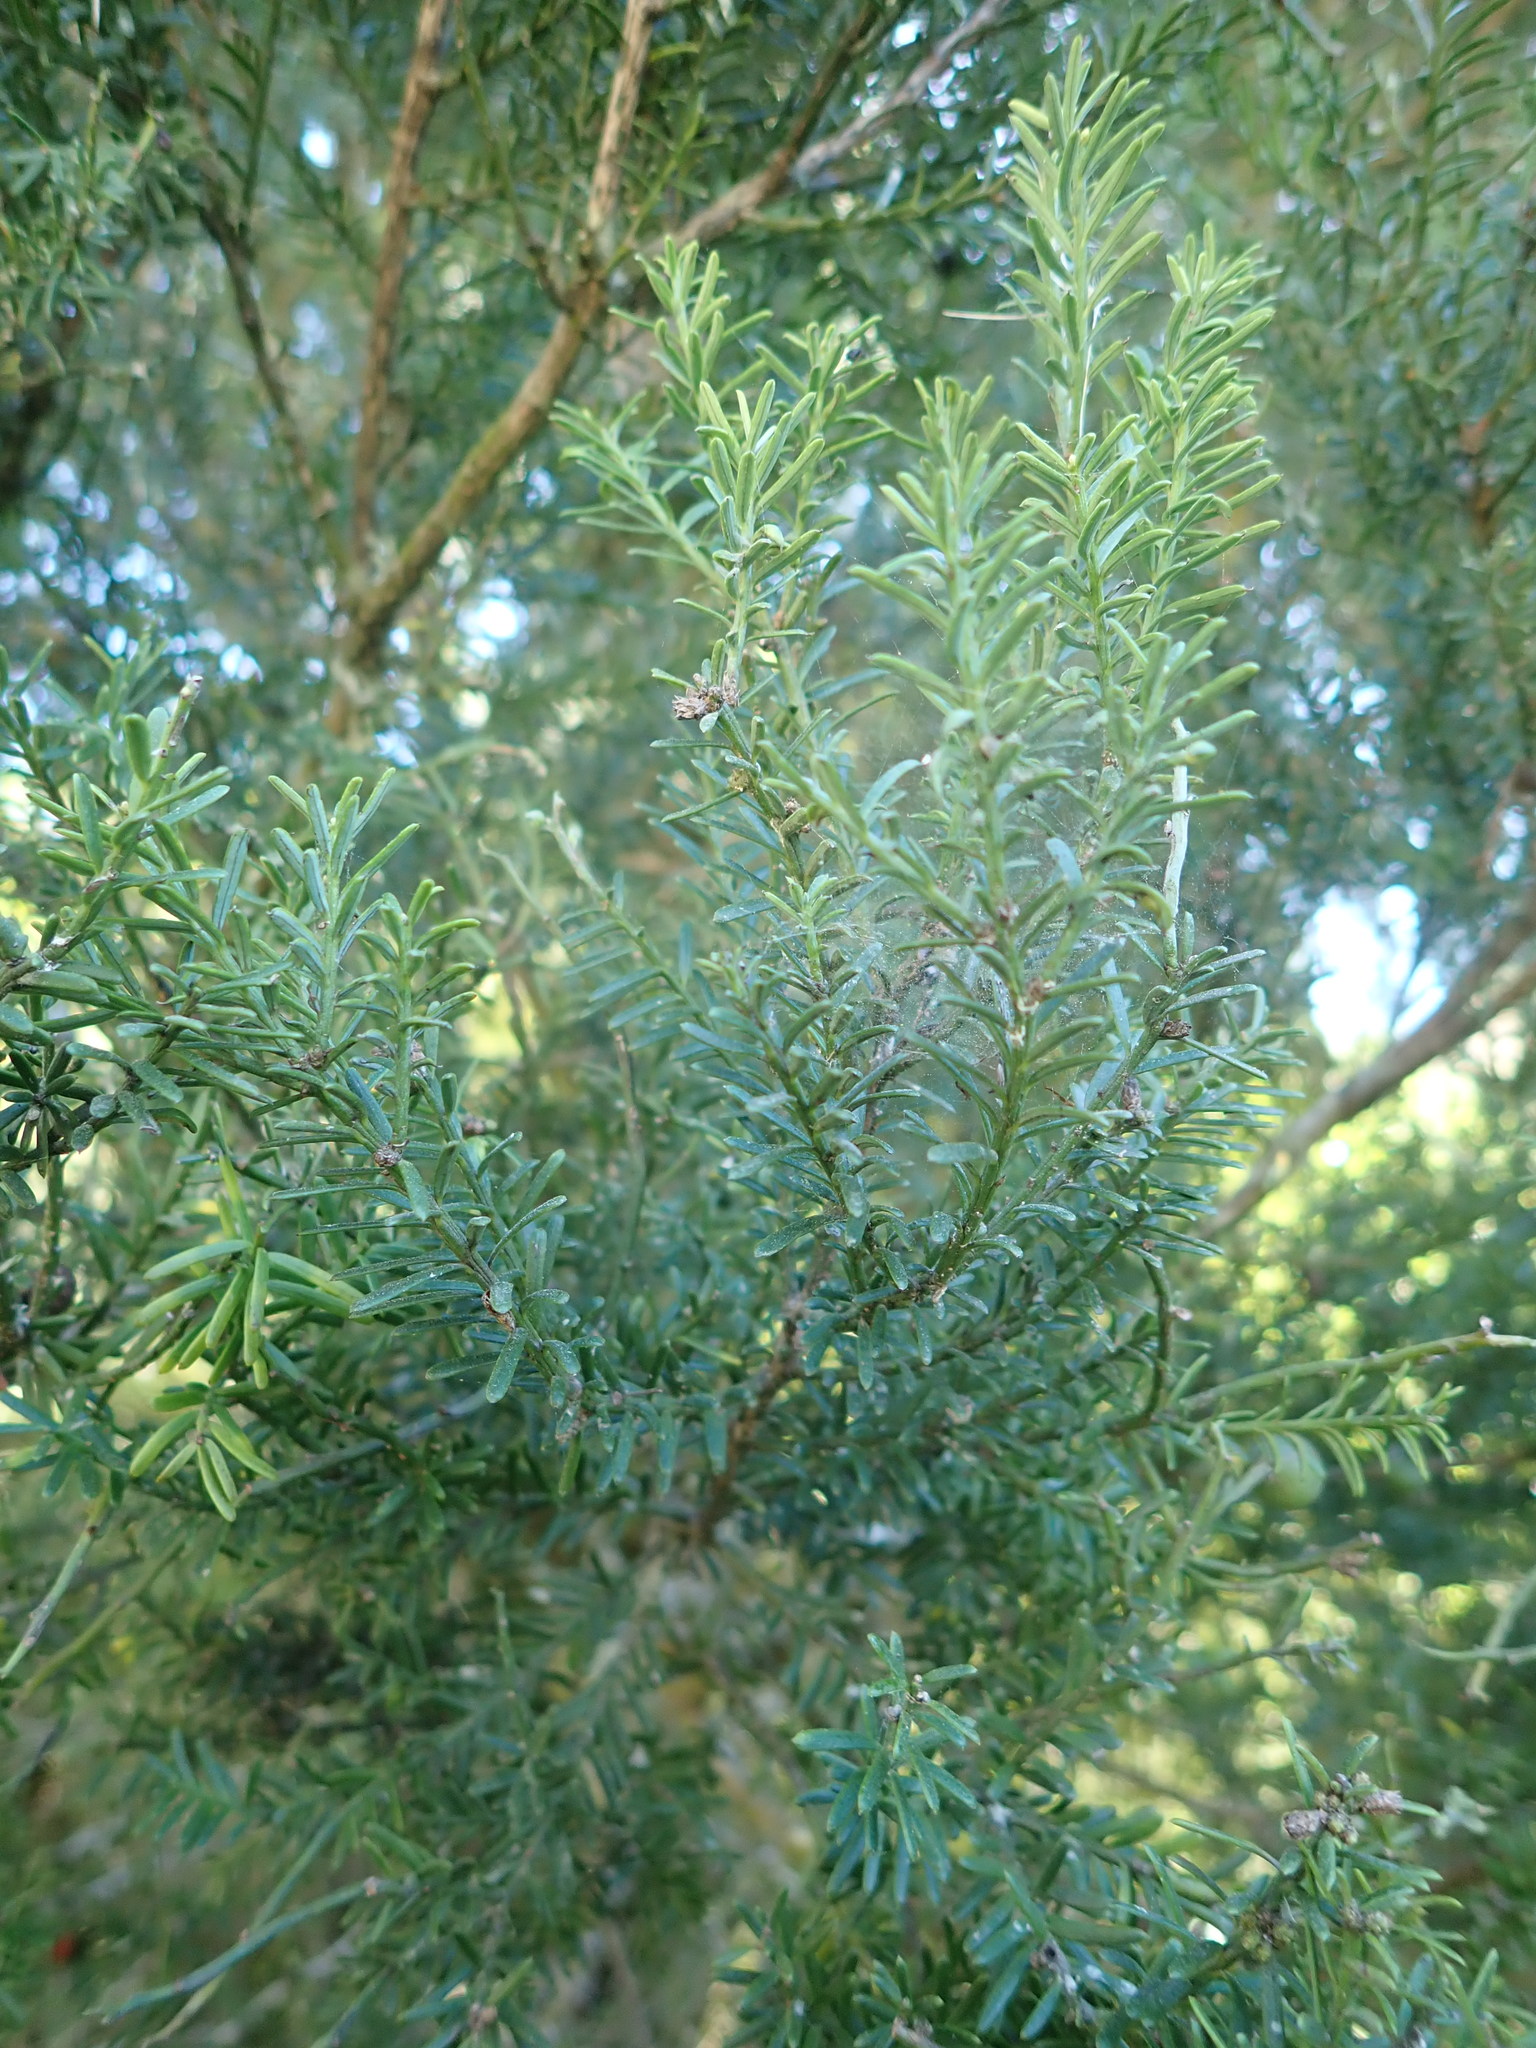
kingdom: Plantae
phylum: Tracheophyta
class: Pinopsida
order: Pinales
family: Podocarpaceae
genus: Prumnopitys
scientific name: Prumnopitys taxifolia
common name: Matai
